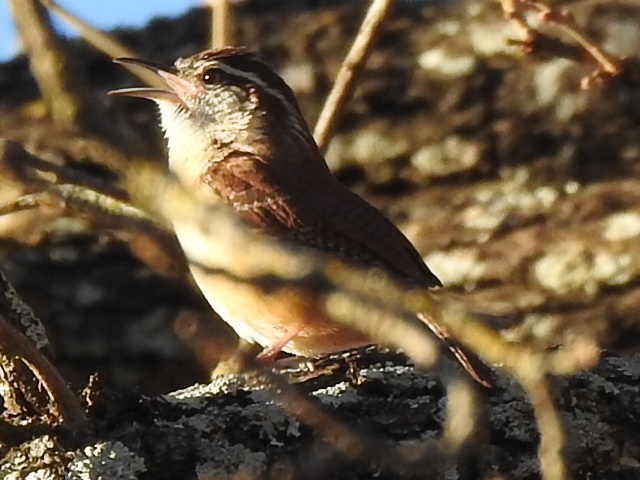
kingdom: Animalia
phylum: Chordata
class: Aves
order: Passeriformes
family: Troglodytidae
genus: Thryothorus
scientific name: Thryothorus ludovicianus
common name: Carolina wren
